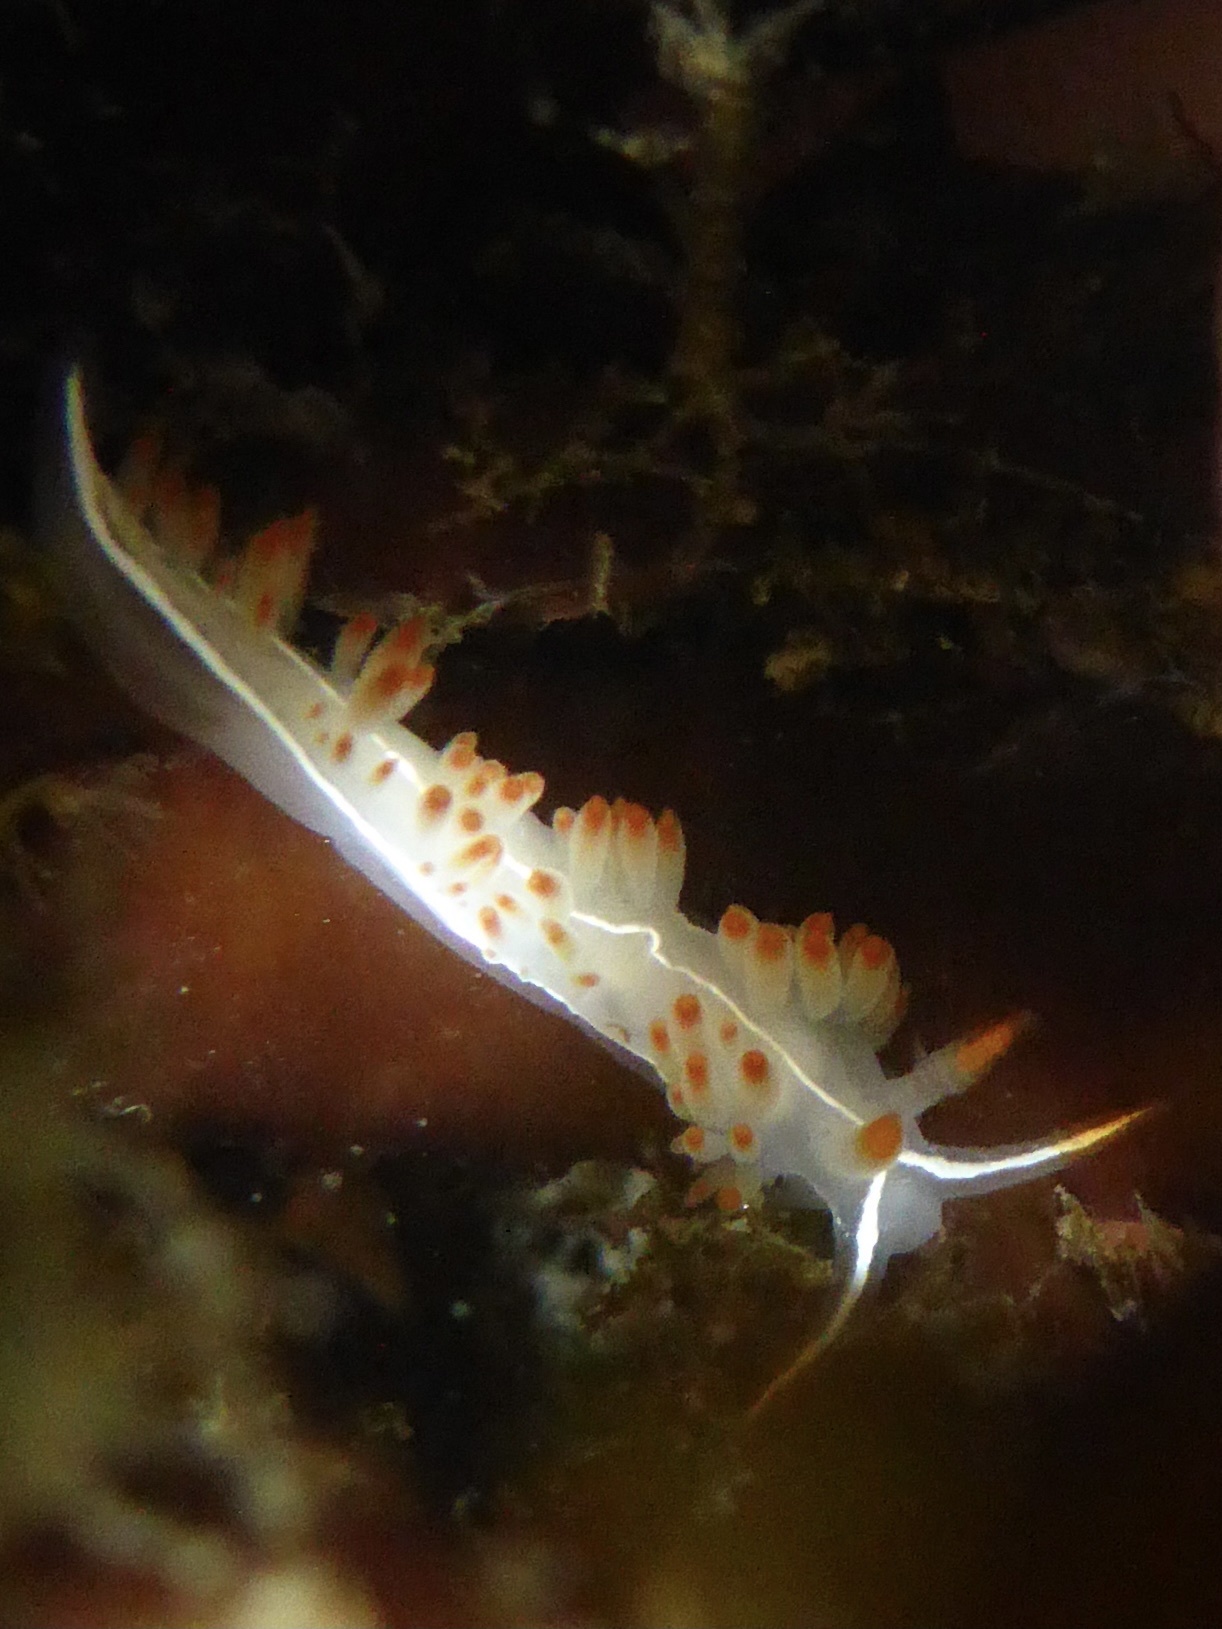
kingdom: Animalia
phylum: Mollusca
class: Gastropoda
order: Nudibranchia
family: Coryphellidae
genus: Coryphella
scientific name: Coryphella trilineata
